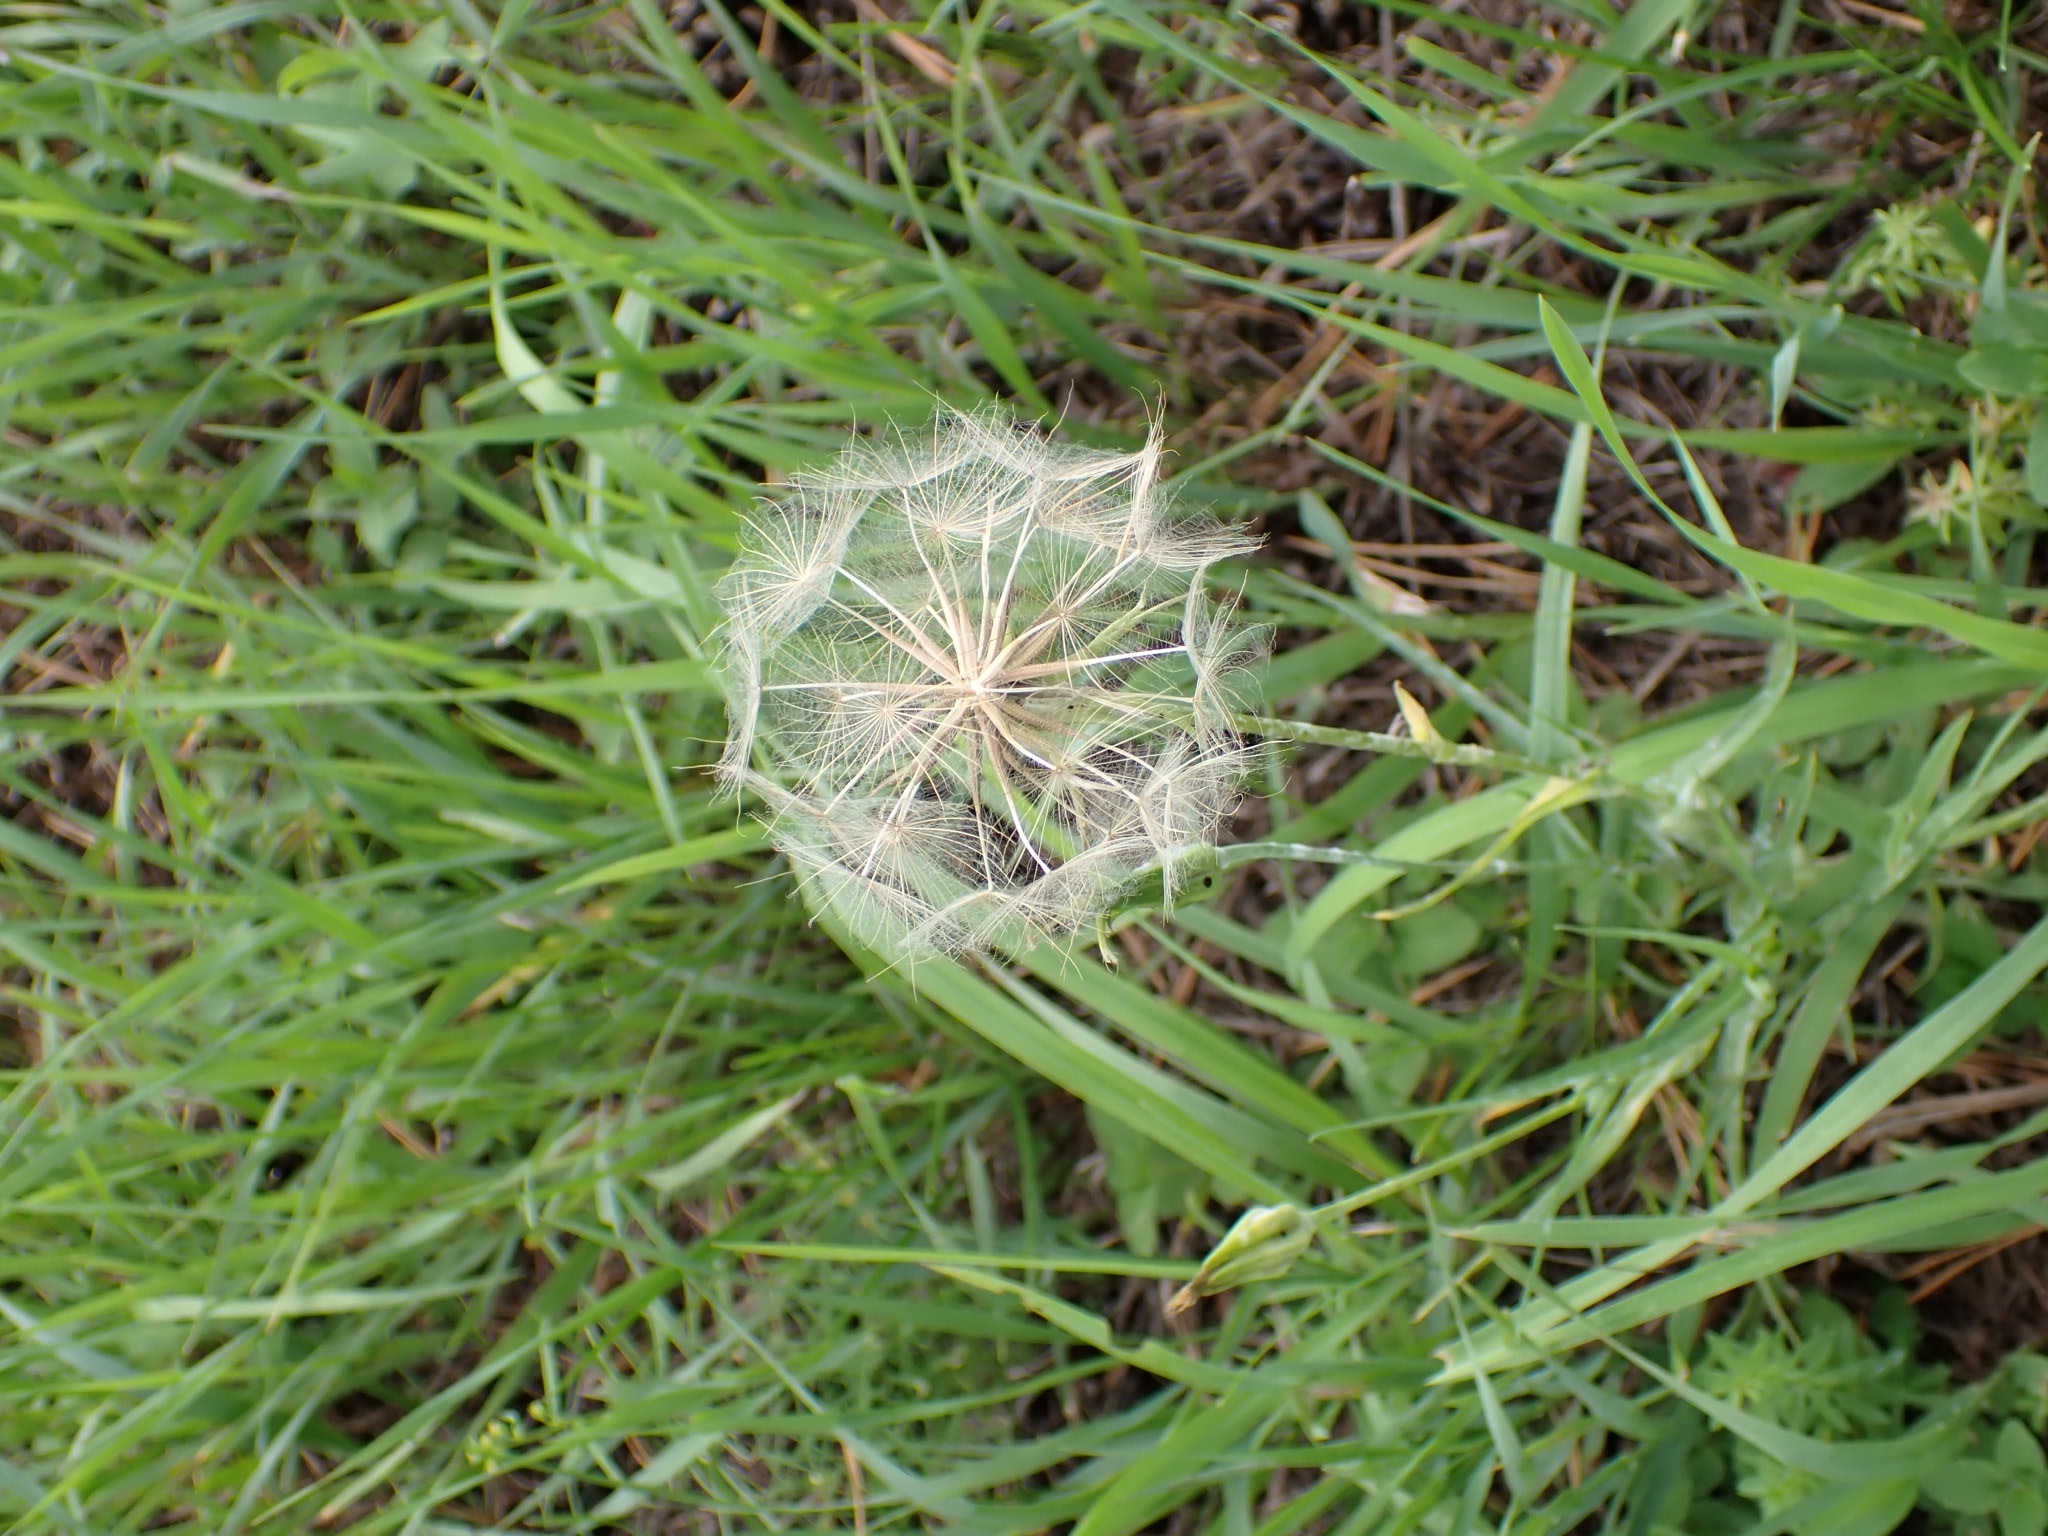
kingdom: Plantae
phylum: Tracheophyta
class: Magnoliopsida
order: Asterales
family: Asteraceae
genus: Tragopogon
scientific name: Tragopogon dubius
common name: Yellow salsify
